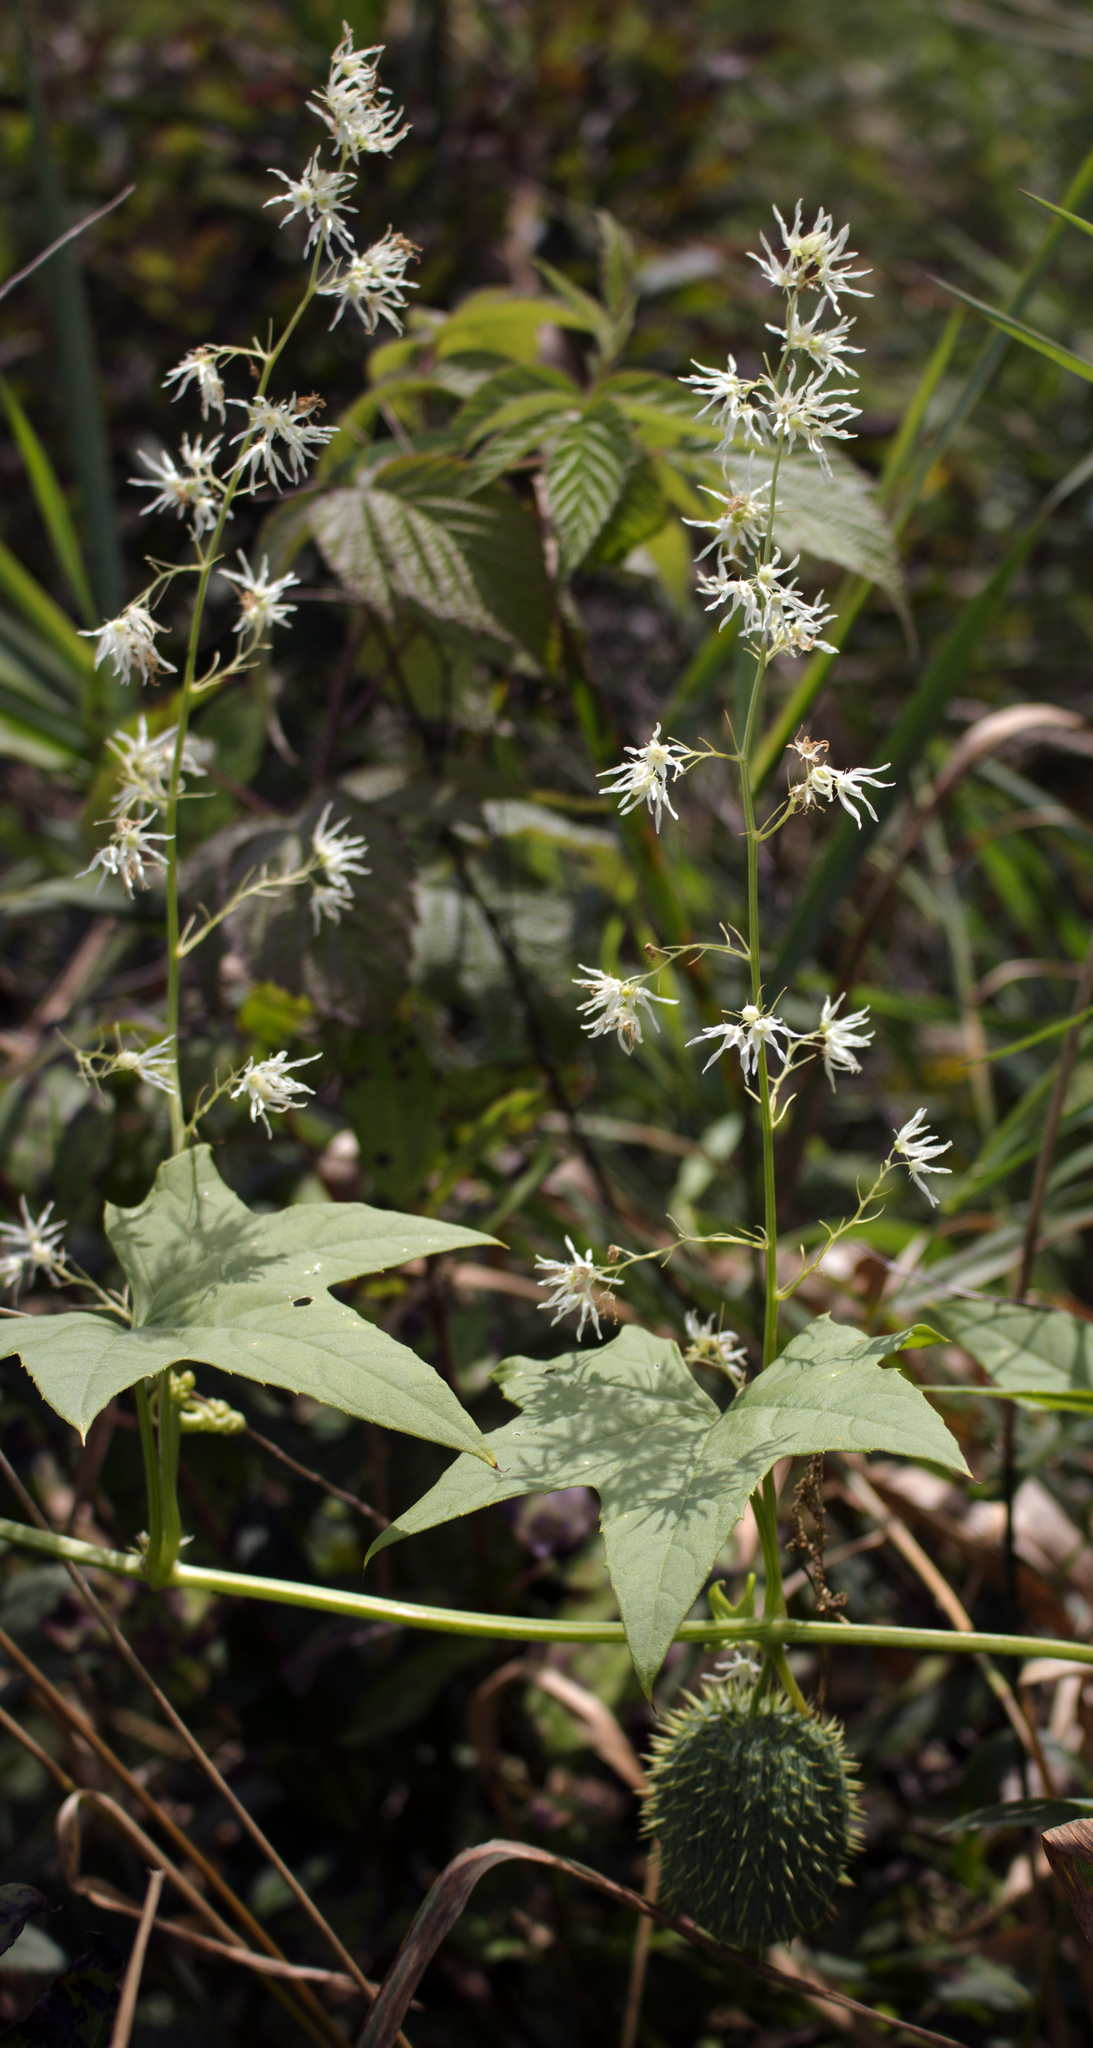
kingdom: Plantae
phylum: Tracheophyta
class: Magnoliopsida
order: Cucurbitales
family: Cucurbitaceae
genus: Echinocystis
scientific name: Echinocystis lobata
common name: Wild cucumber
